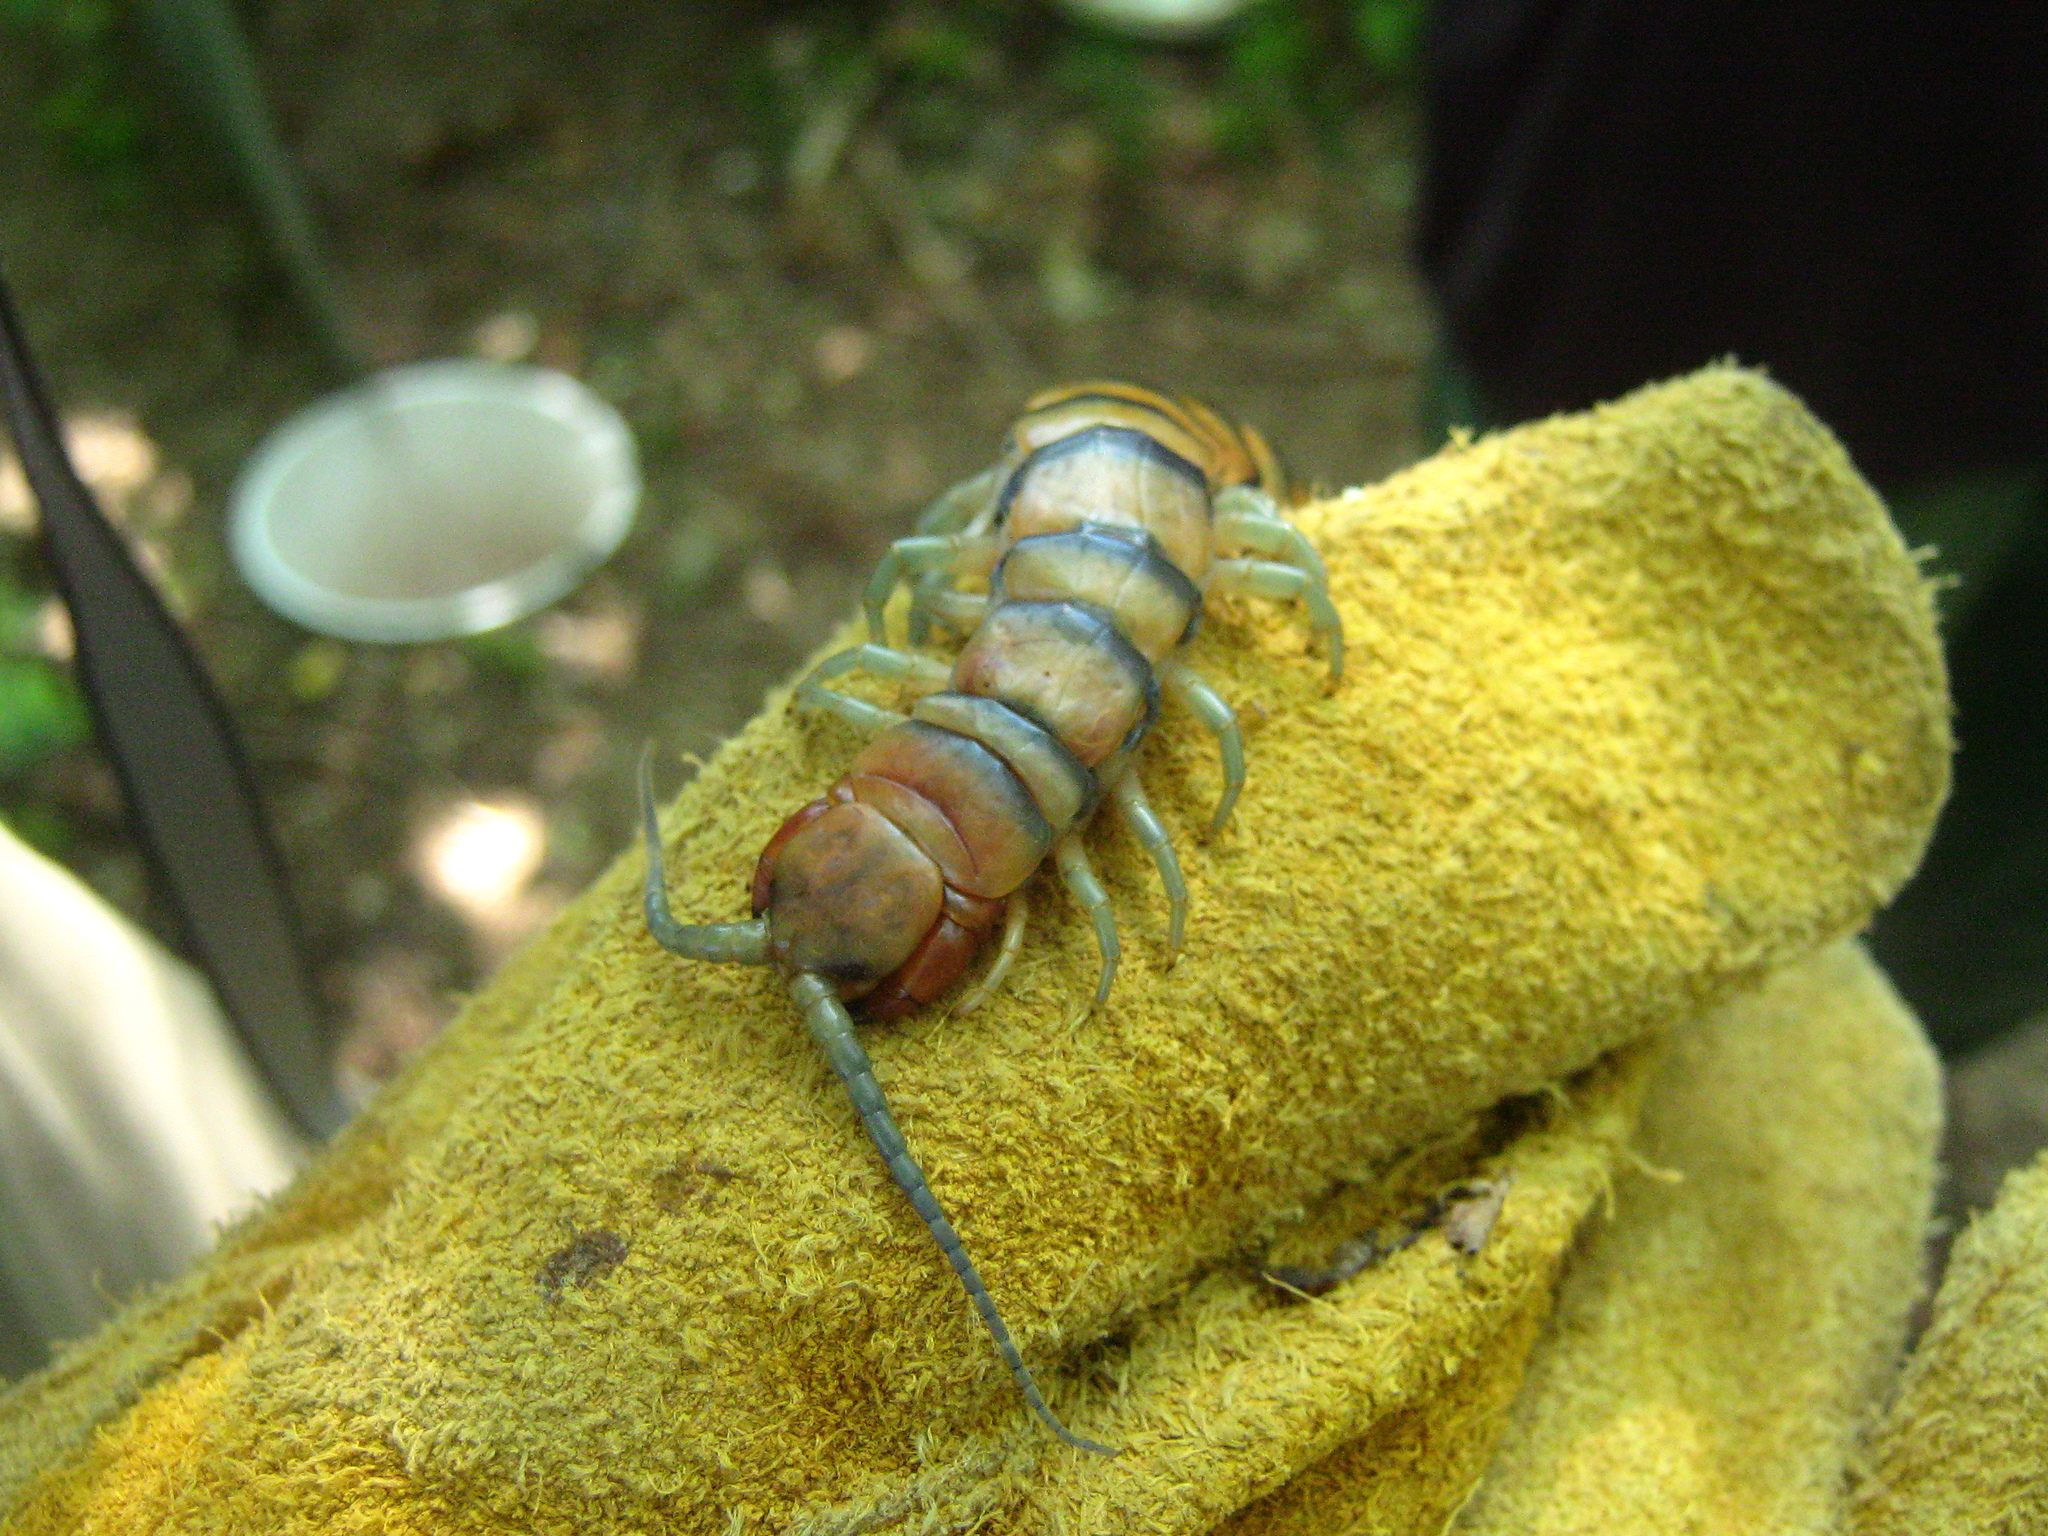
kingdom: Animalia
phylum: Arthropoda
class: Chilopoda
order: Scolopendromorpha
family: Scolopendridae
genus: Scolopendra
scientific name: Scolopendra polymorpha
